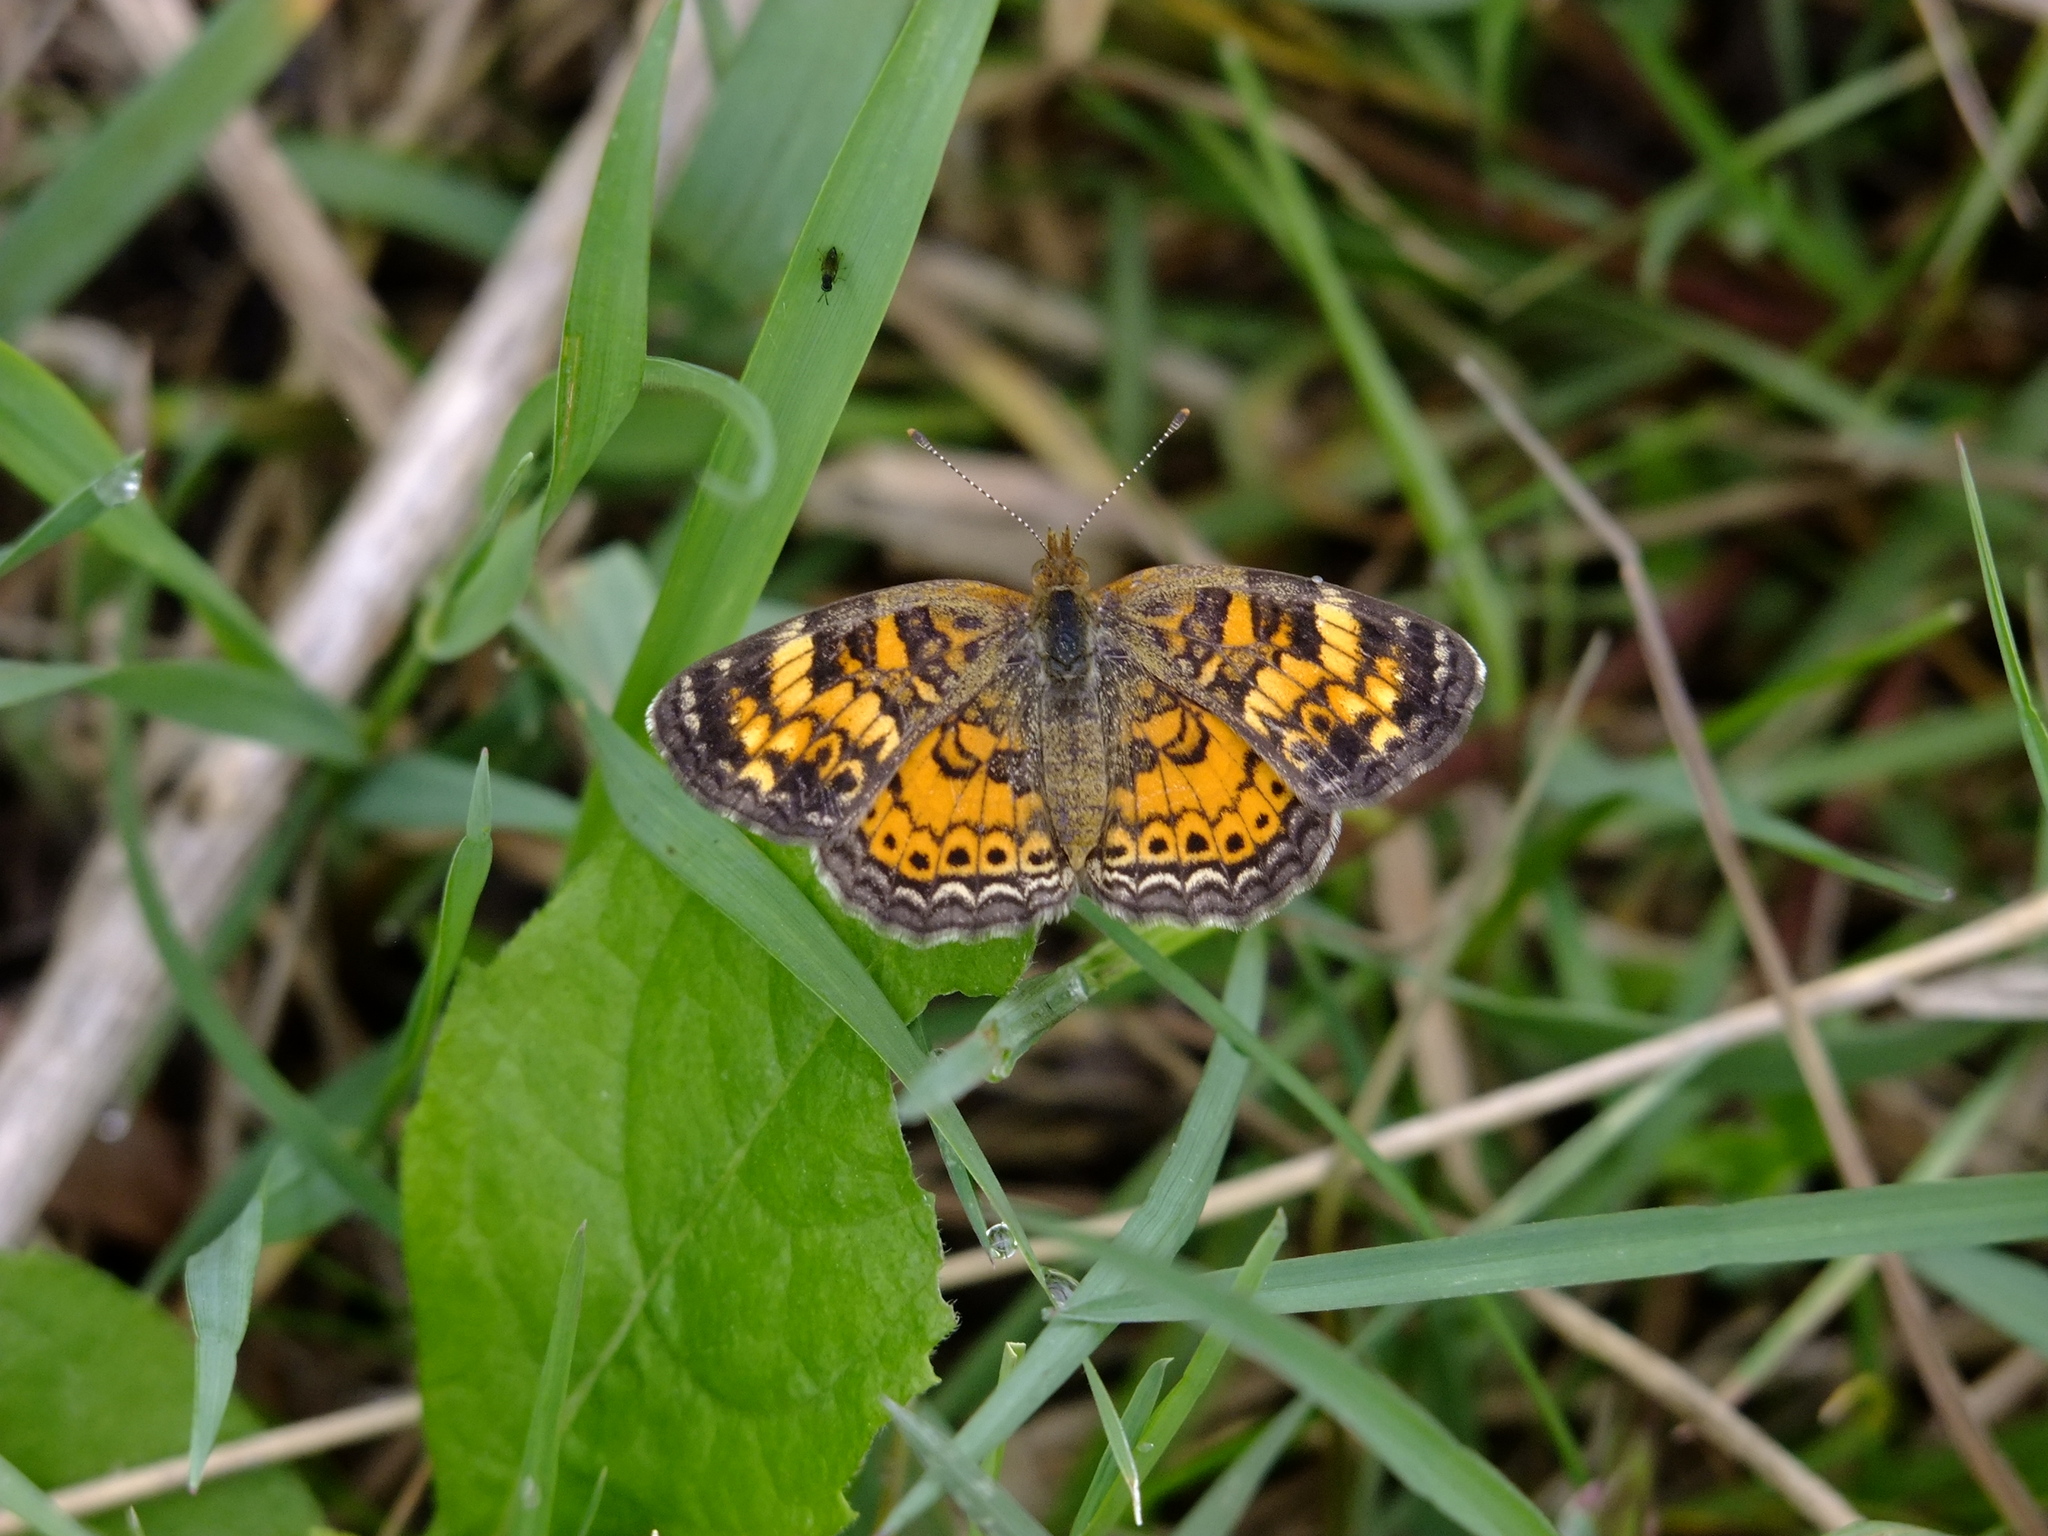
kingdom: Animalia
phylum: Arthropoda
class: Insecta
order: Lepidoptera
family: Nymphalidae
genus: Phyciodes
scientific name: Phyciodes tharos
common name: Pearl crescent
